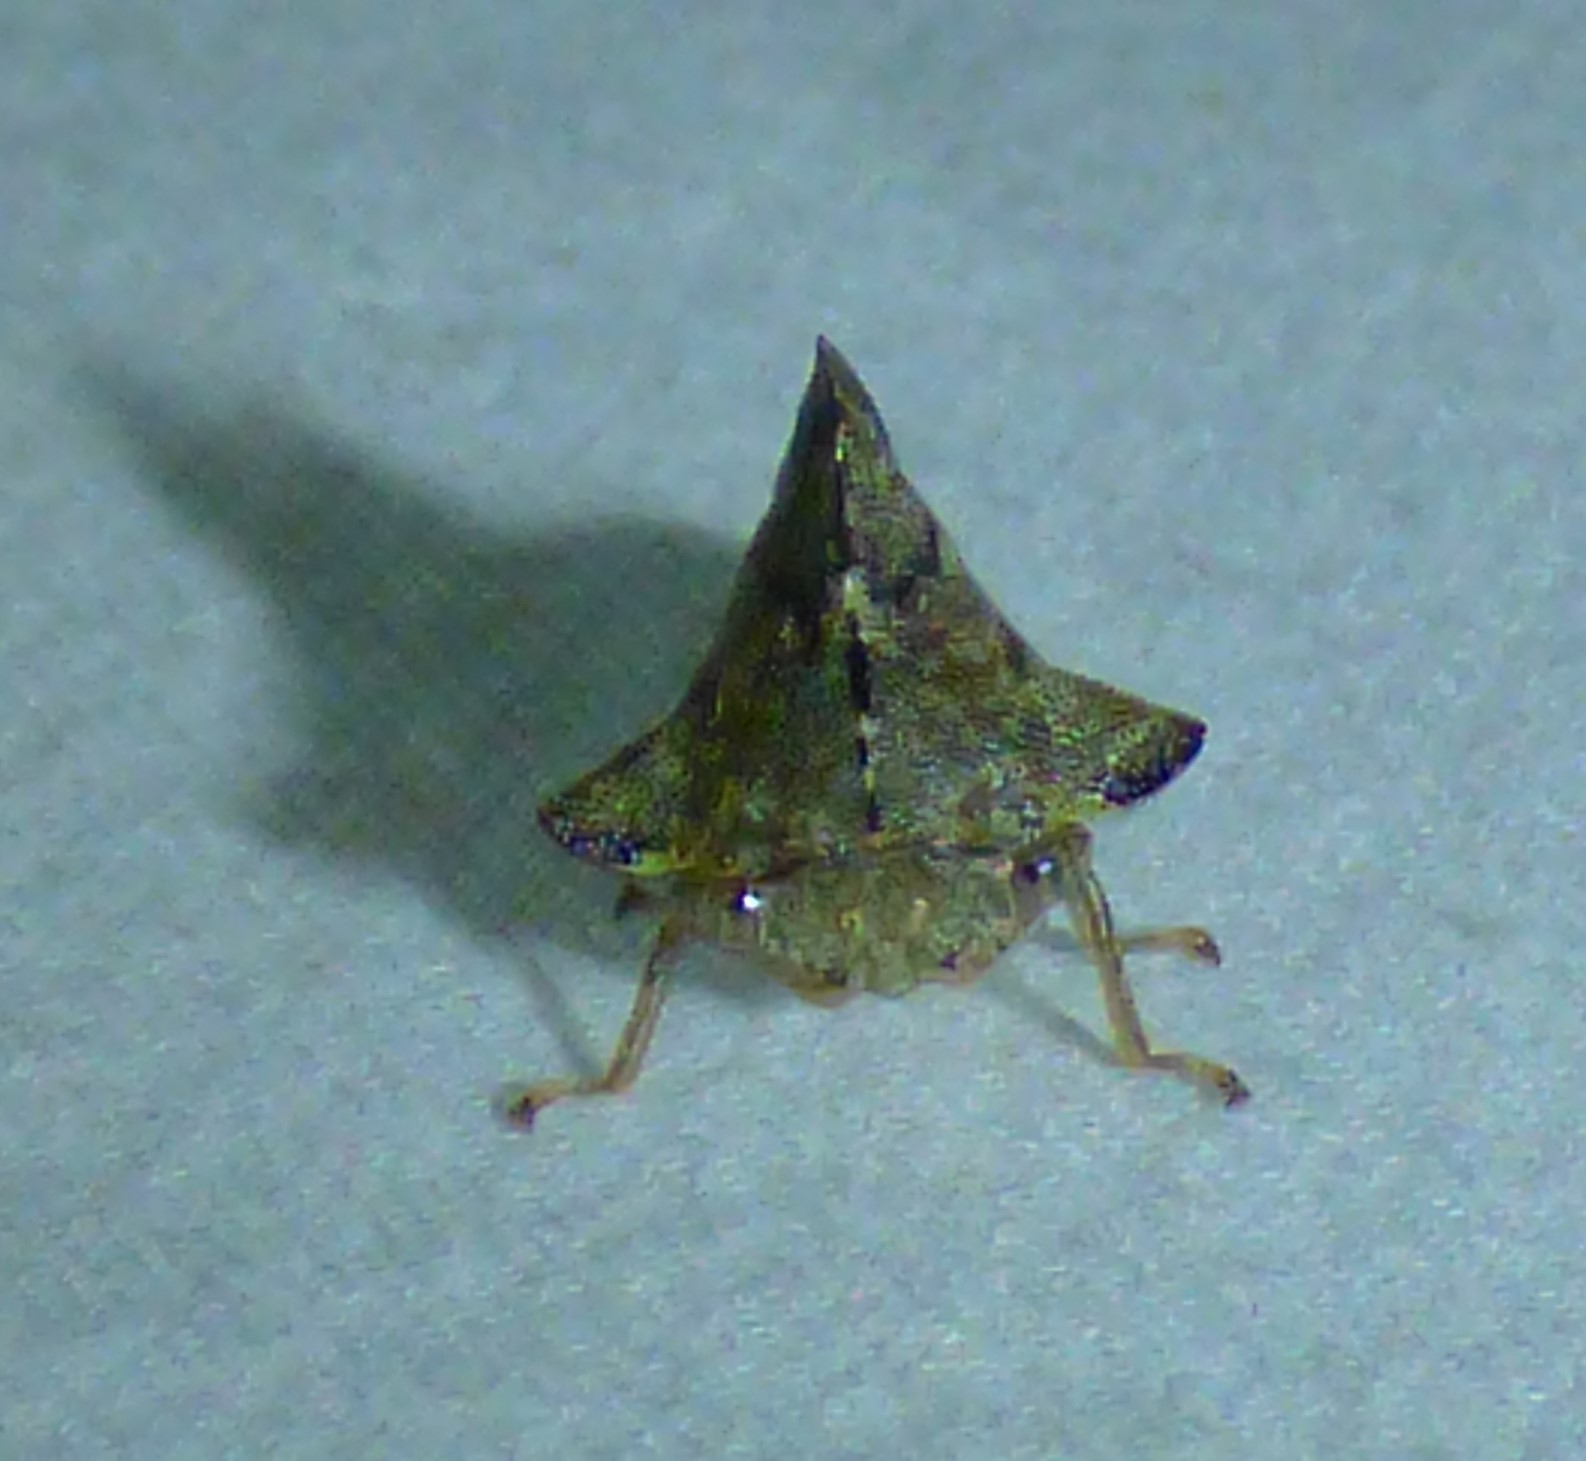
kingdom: Animalia
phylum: Arthropoda
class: Insecta
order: Hemiptera
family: Membracidae
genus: Heliria
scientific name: Heliria cornutula
